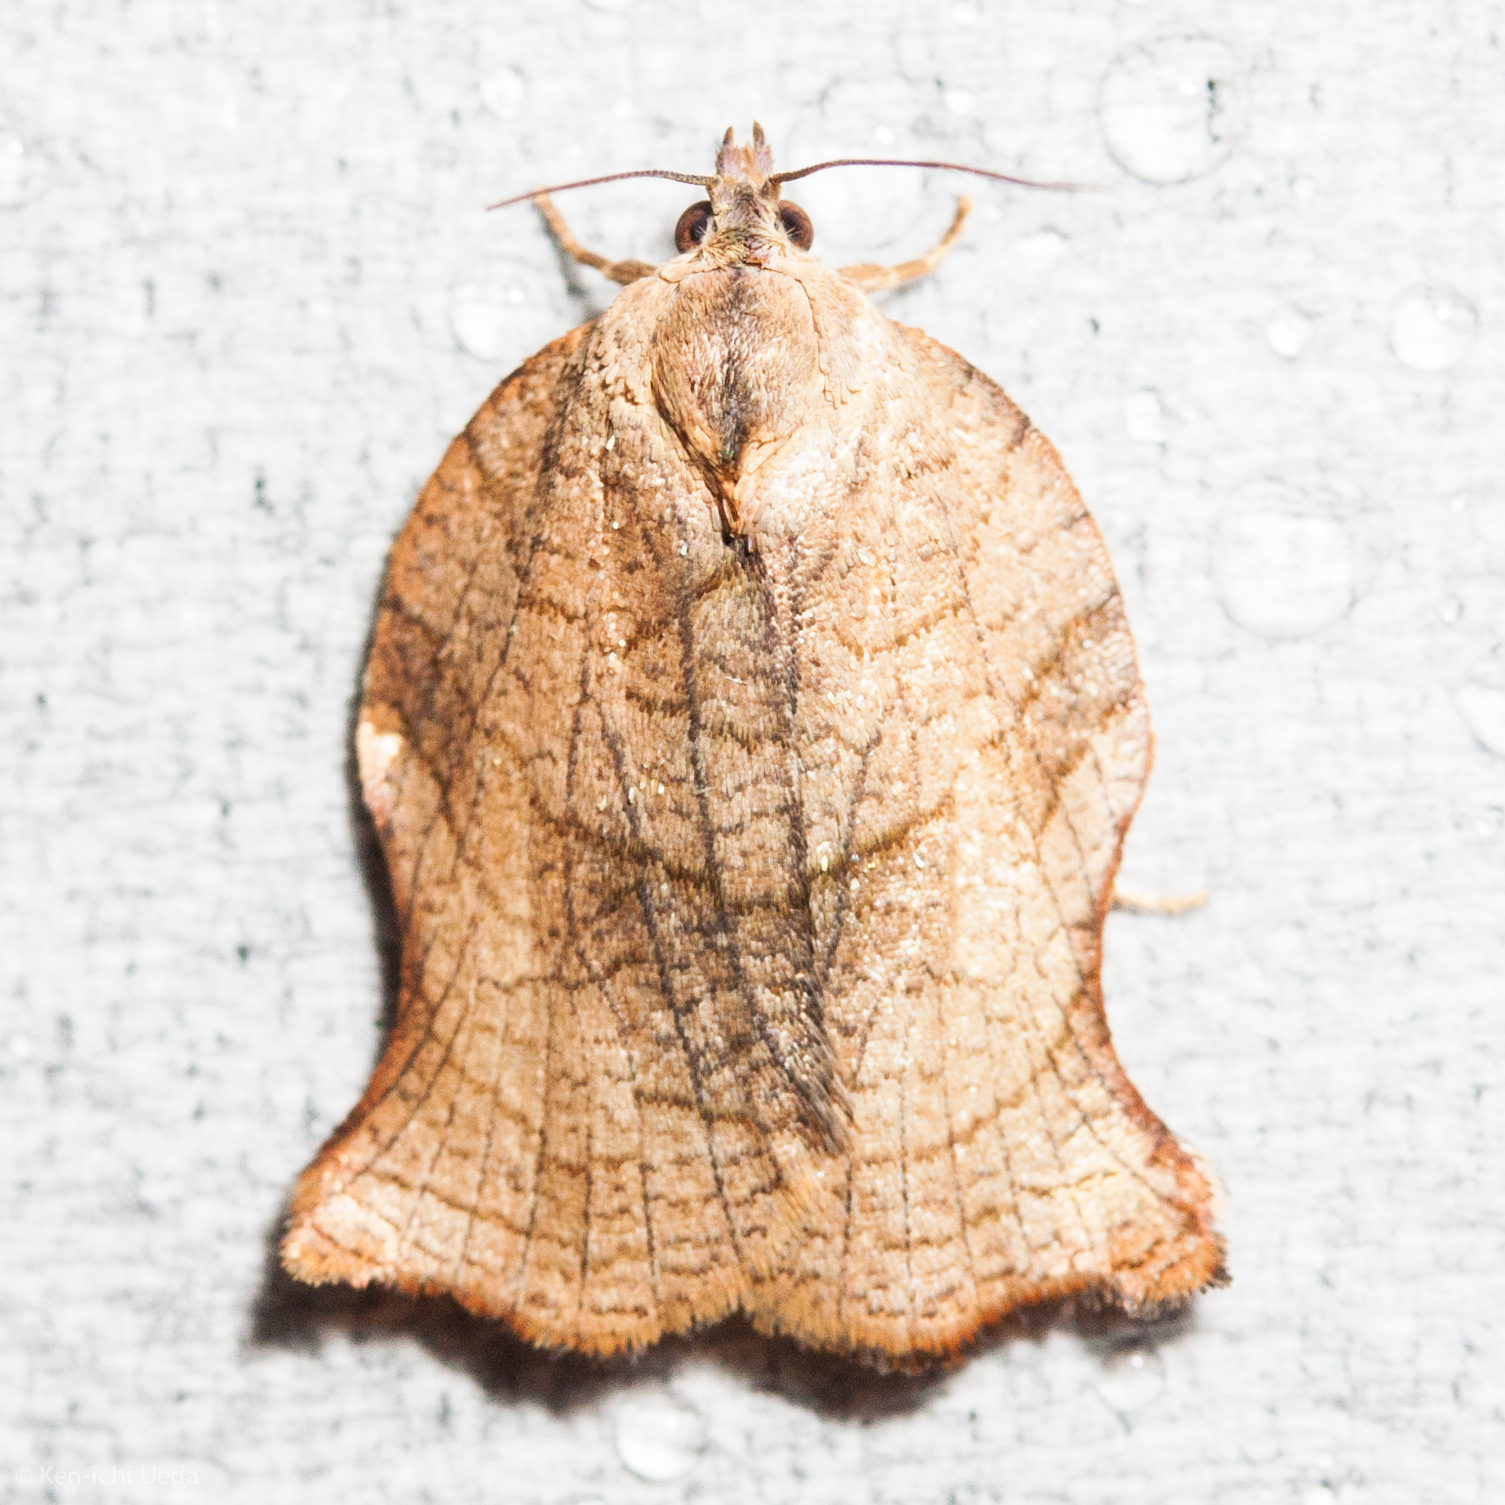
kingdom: Animalia
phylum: Arthropoda
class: Insecta
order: Lepidoptera
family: Tortricidae
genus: Archips
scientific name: Archips purpurana
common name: Omnivorous leafroller
